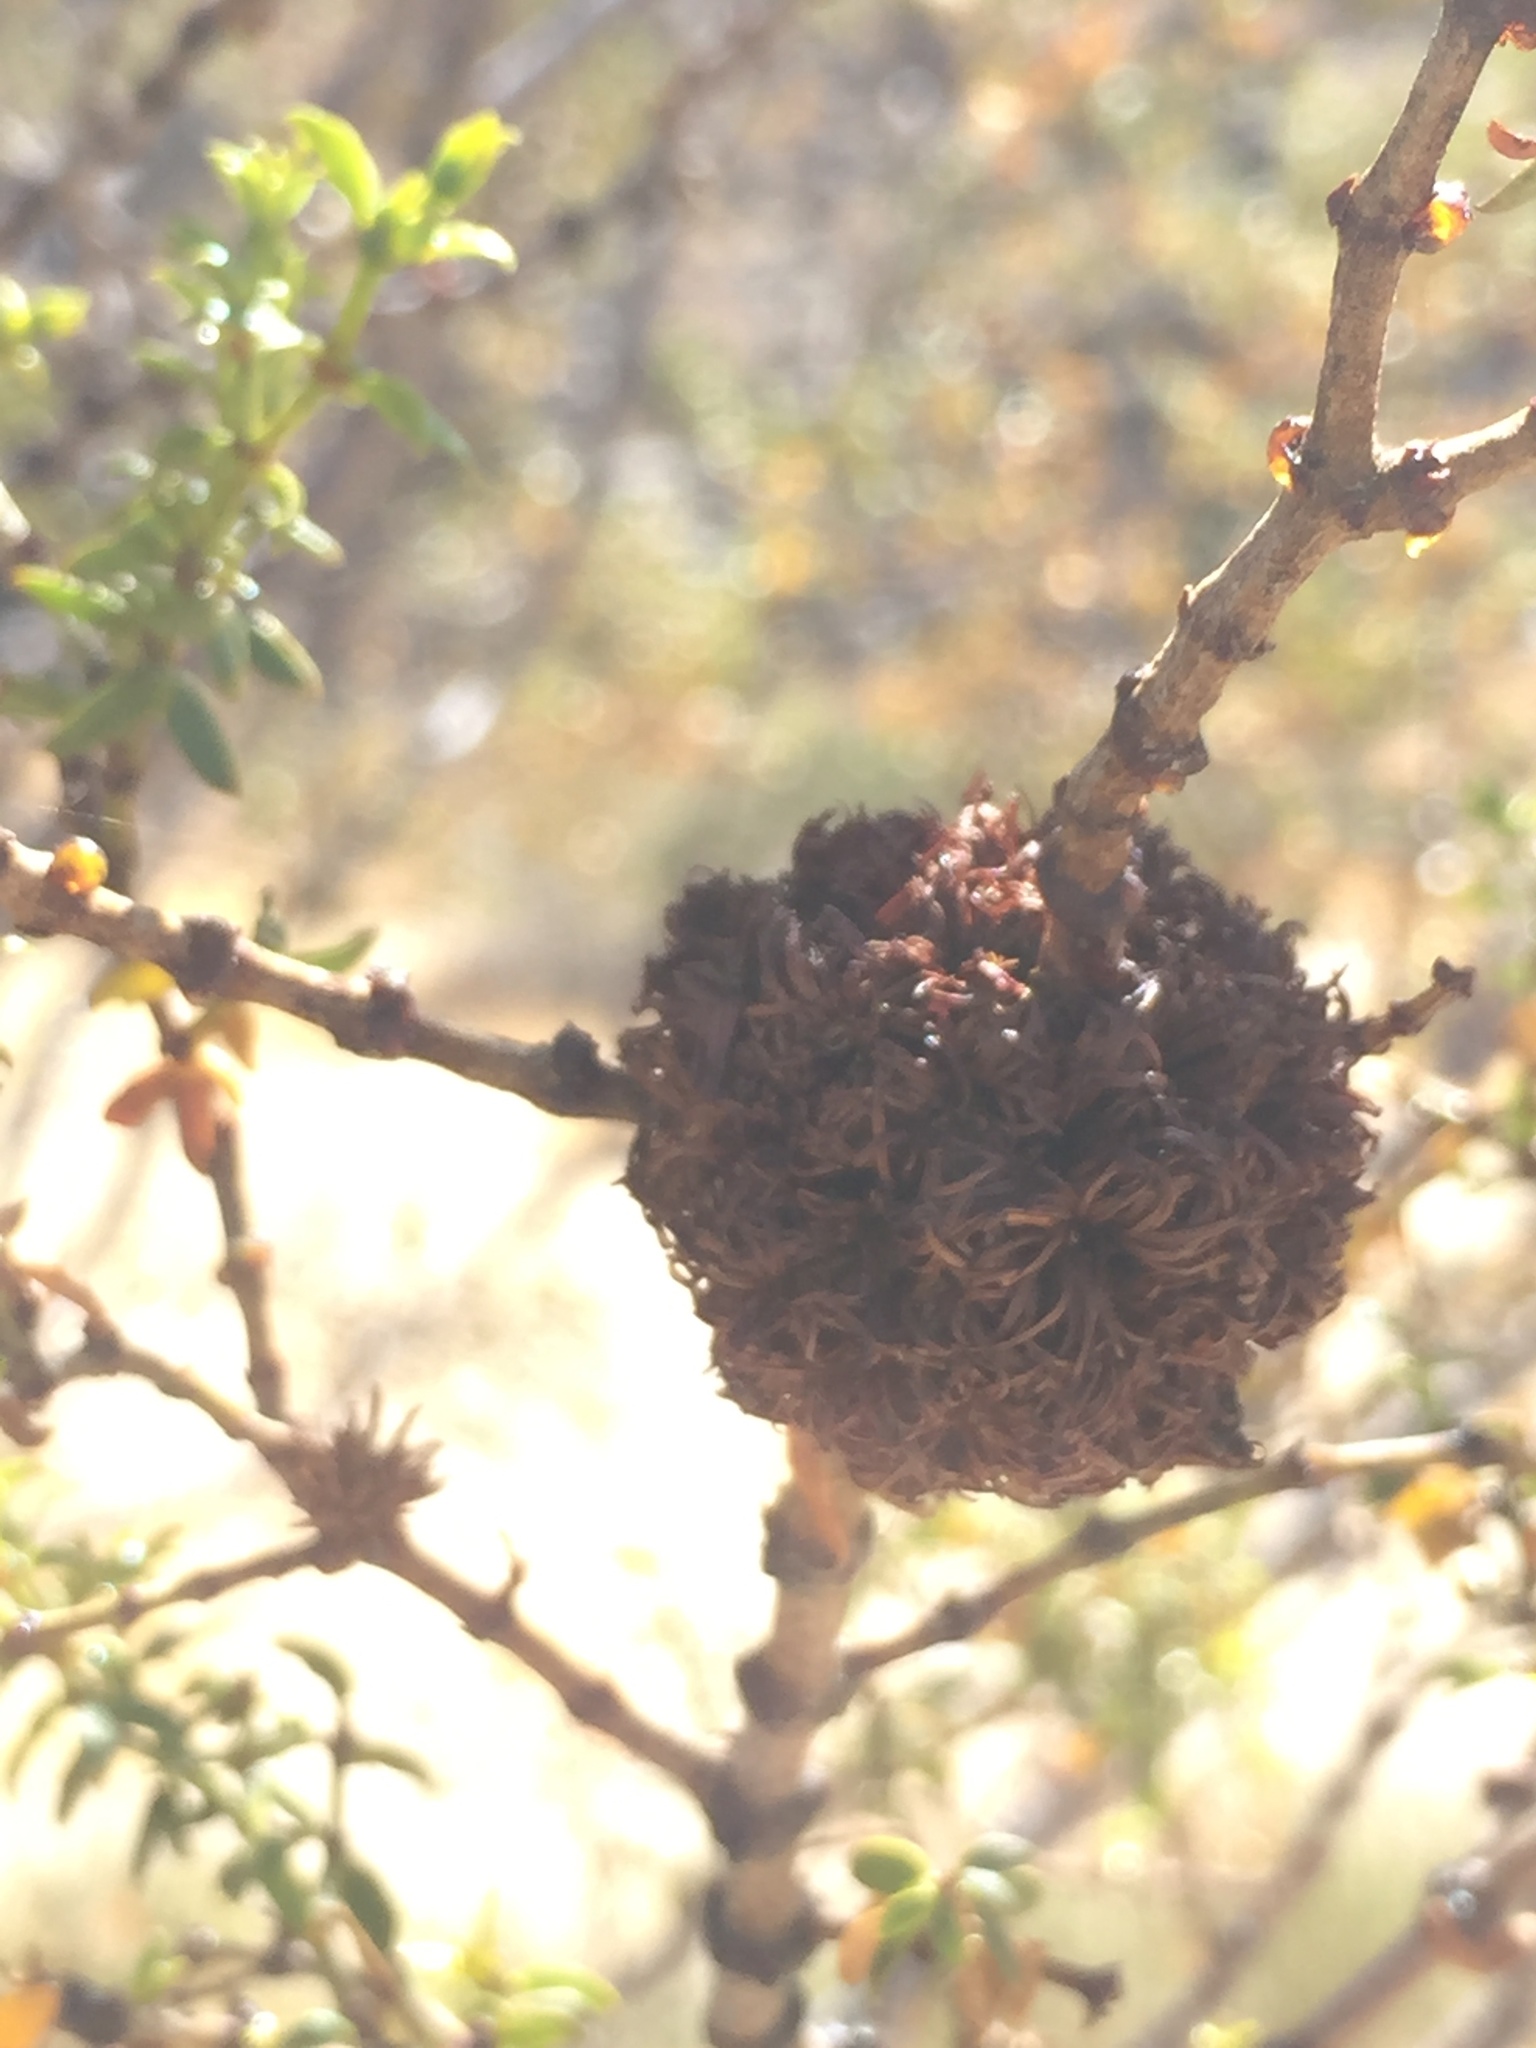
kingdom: Animalia
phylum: Arthropoda
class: Insecta
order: Diptera
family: Cecidomyiidae
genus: Asphondylia
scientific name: Asphondylia auripila
